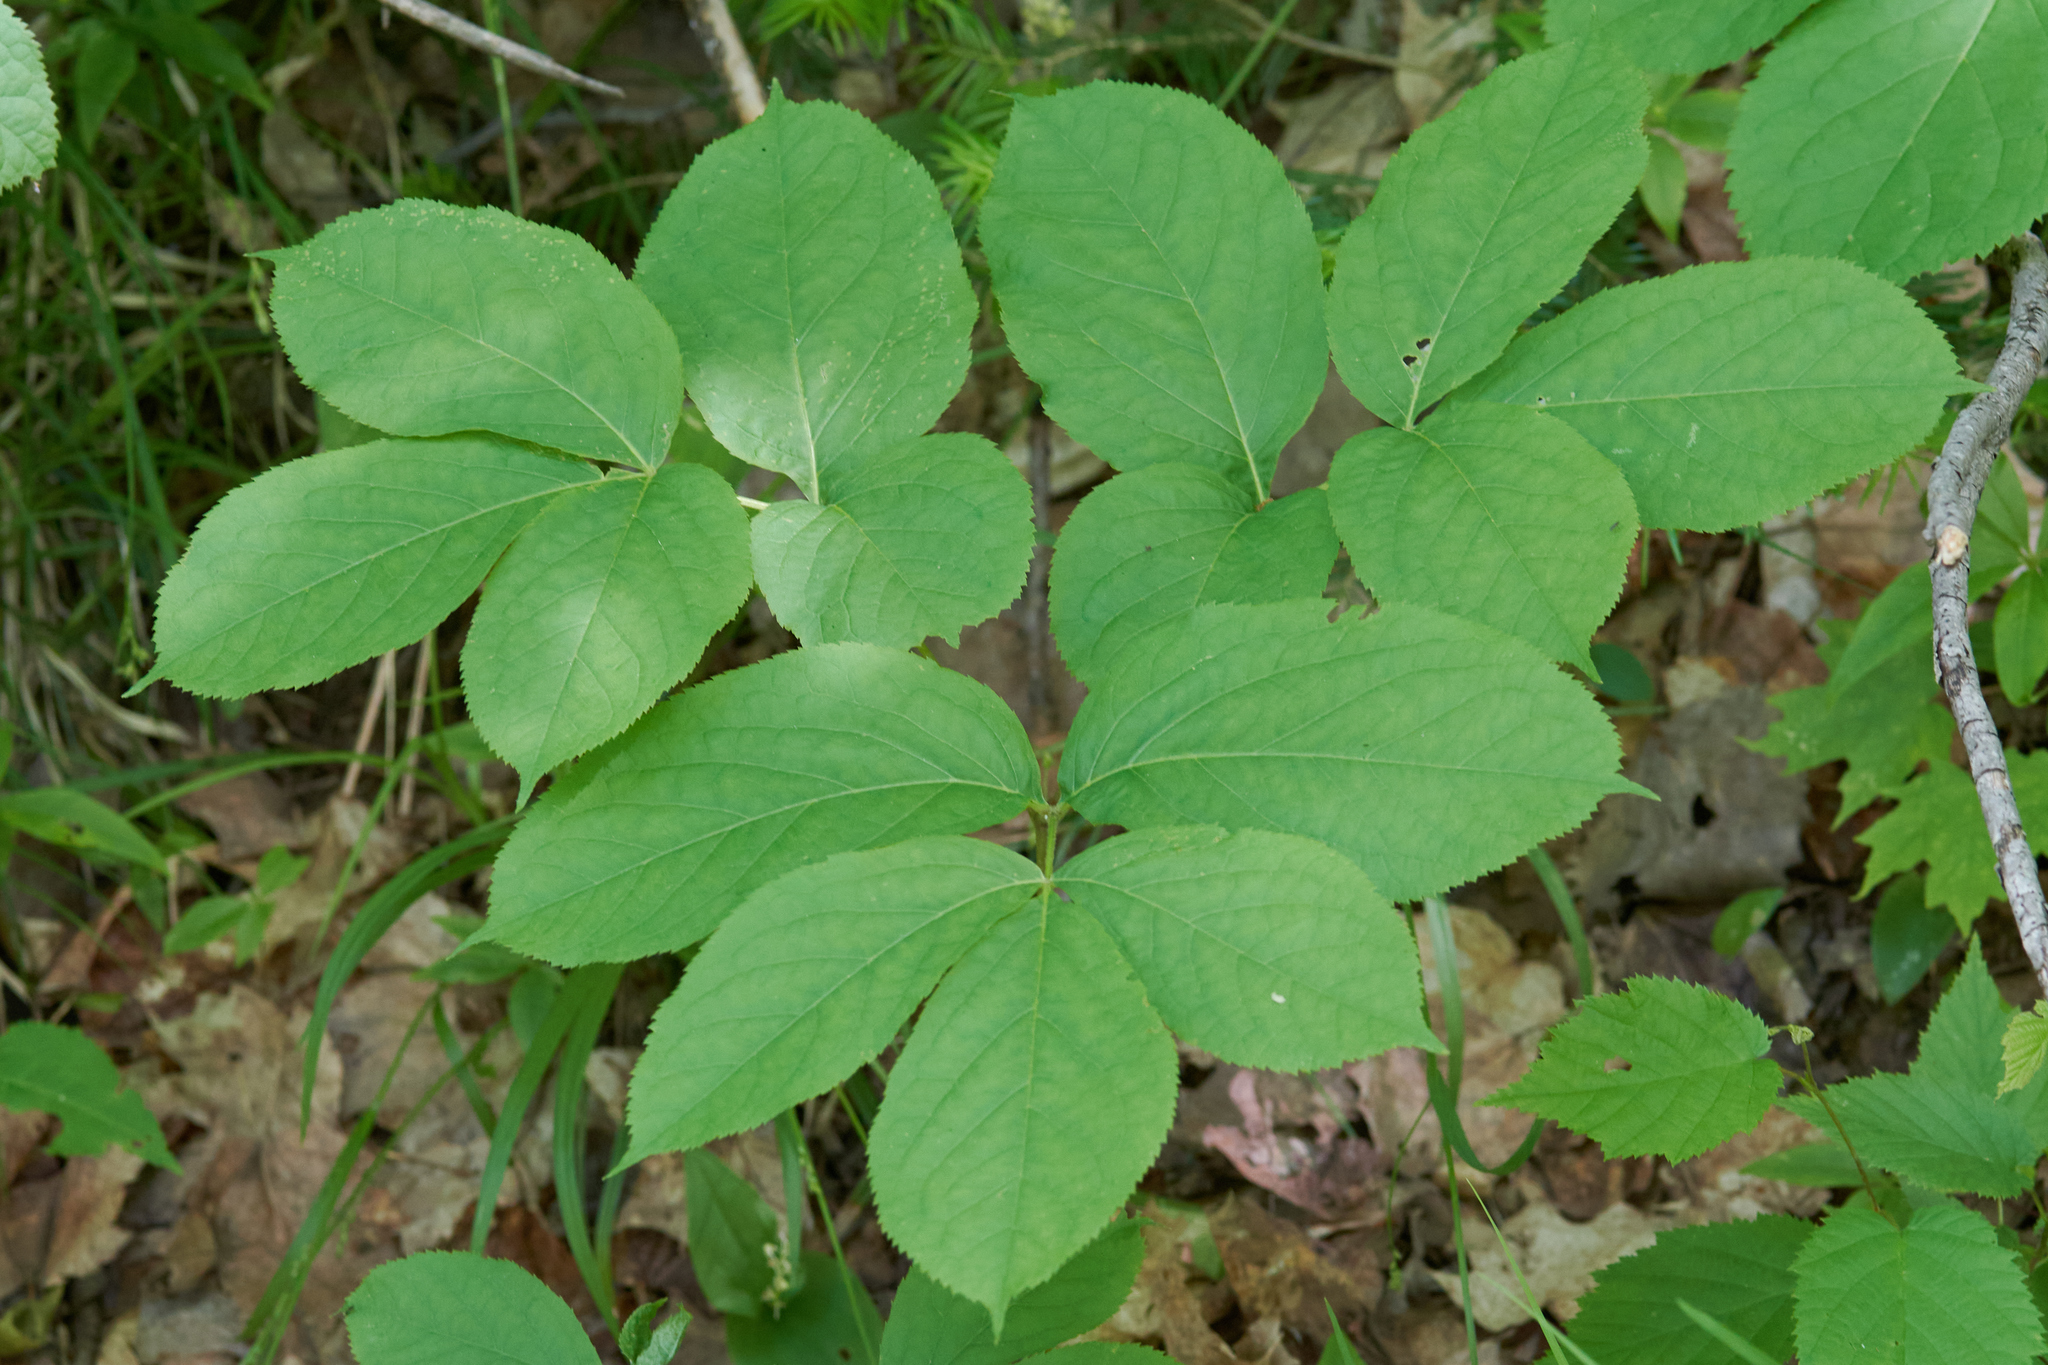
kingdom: Plantae
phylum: Tracheophyta
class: Magnoliopsida
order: Apiales
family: Araliaceae
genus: Aralia
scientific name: Aralia nudicaulis
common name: Wild sarsaparilla
